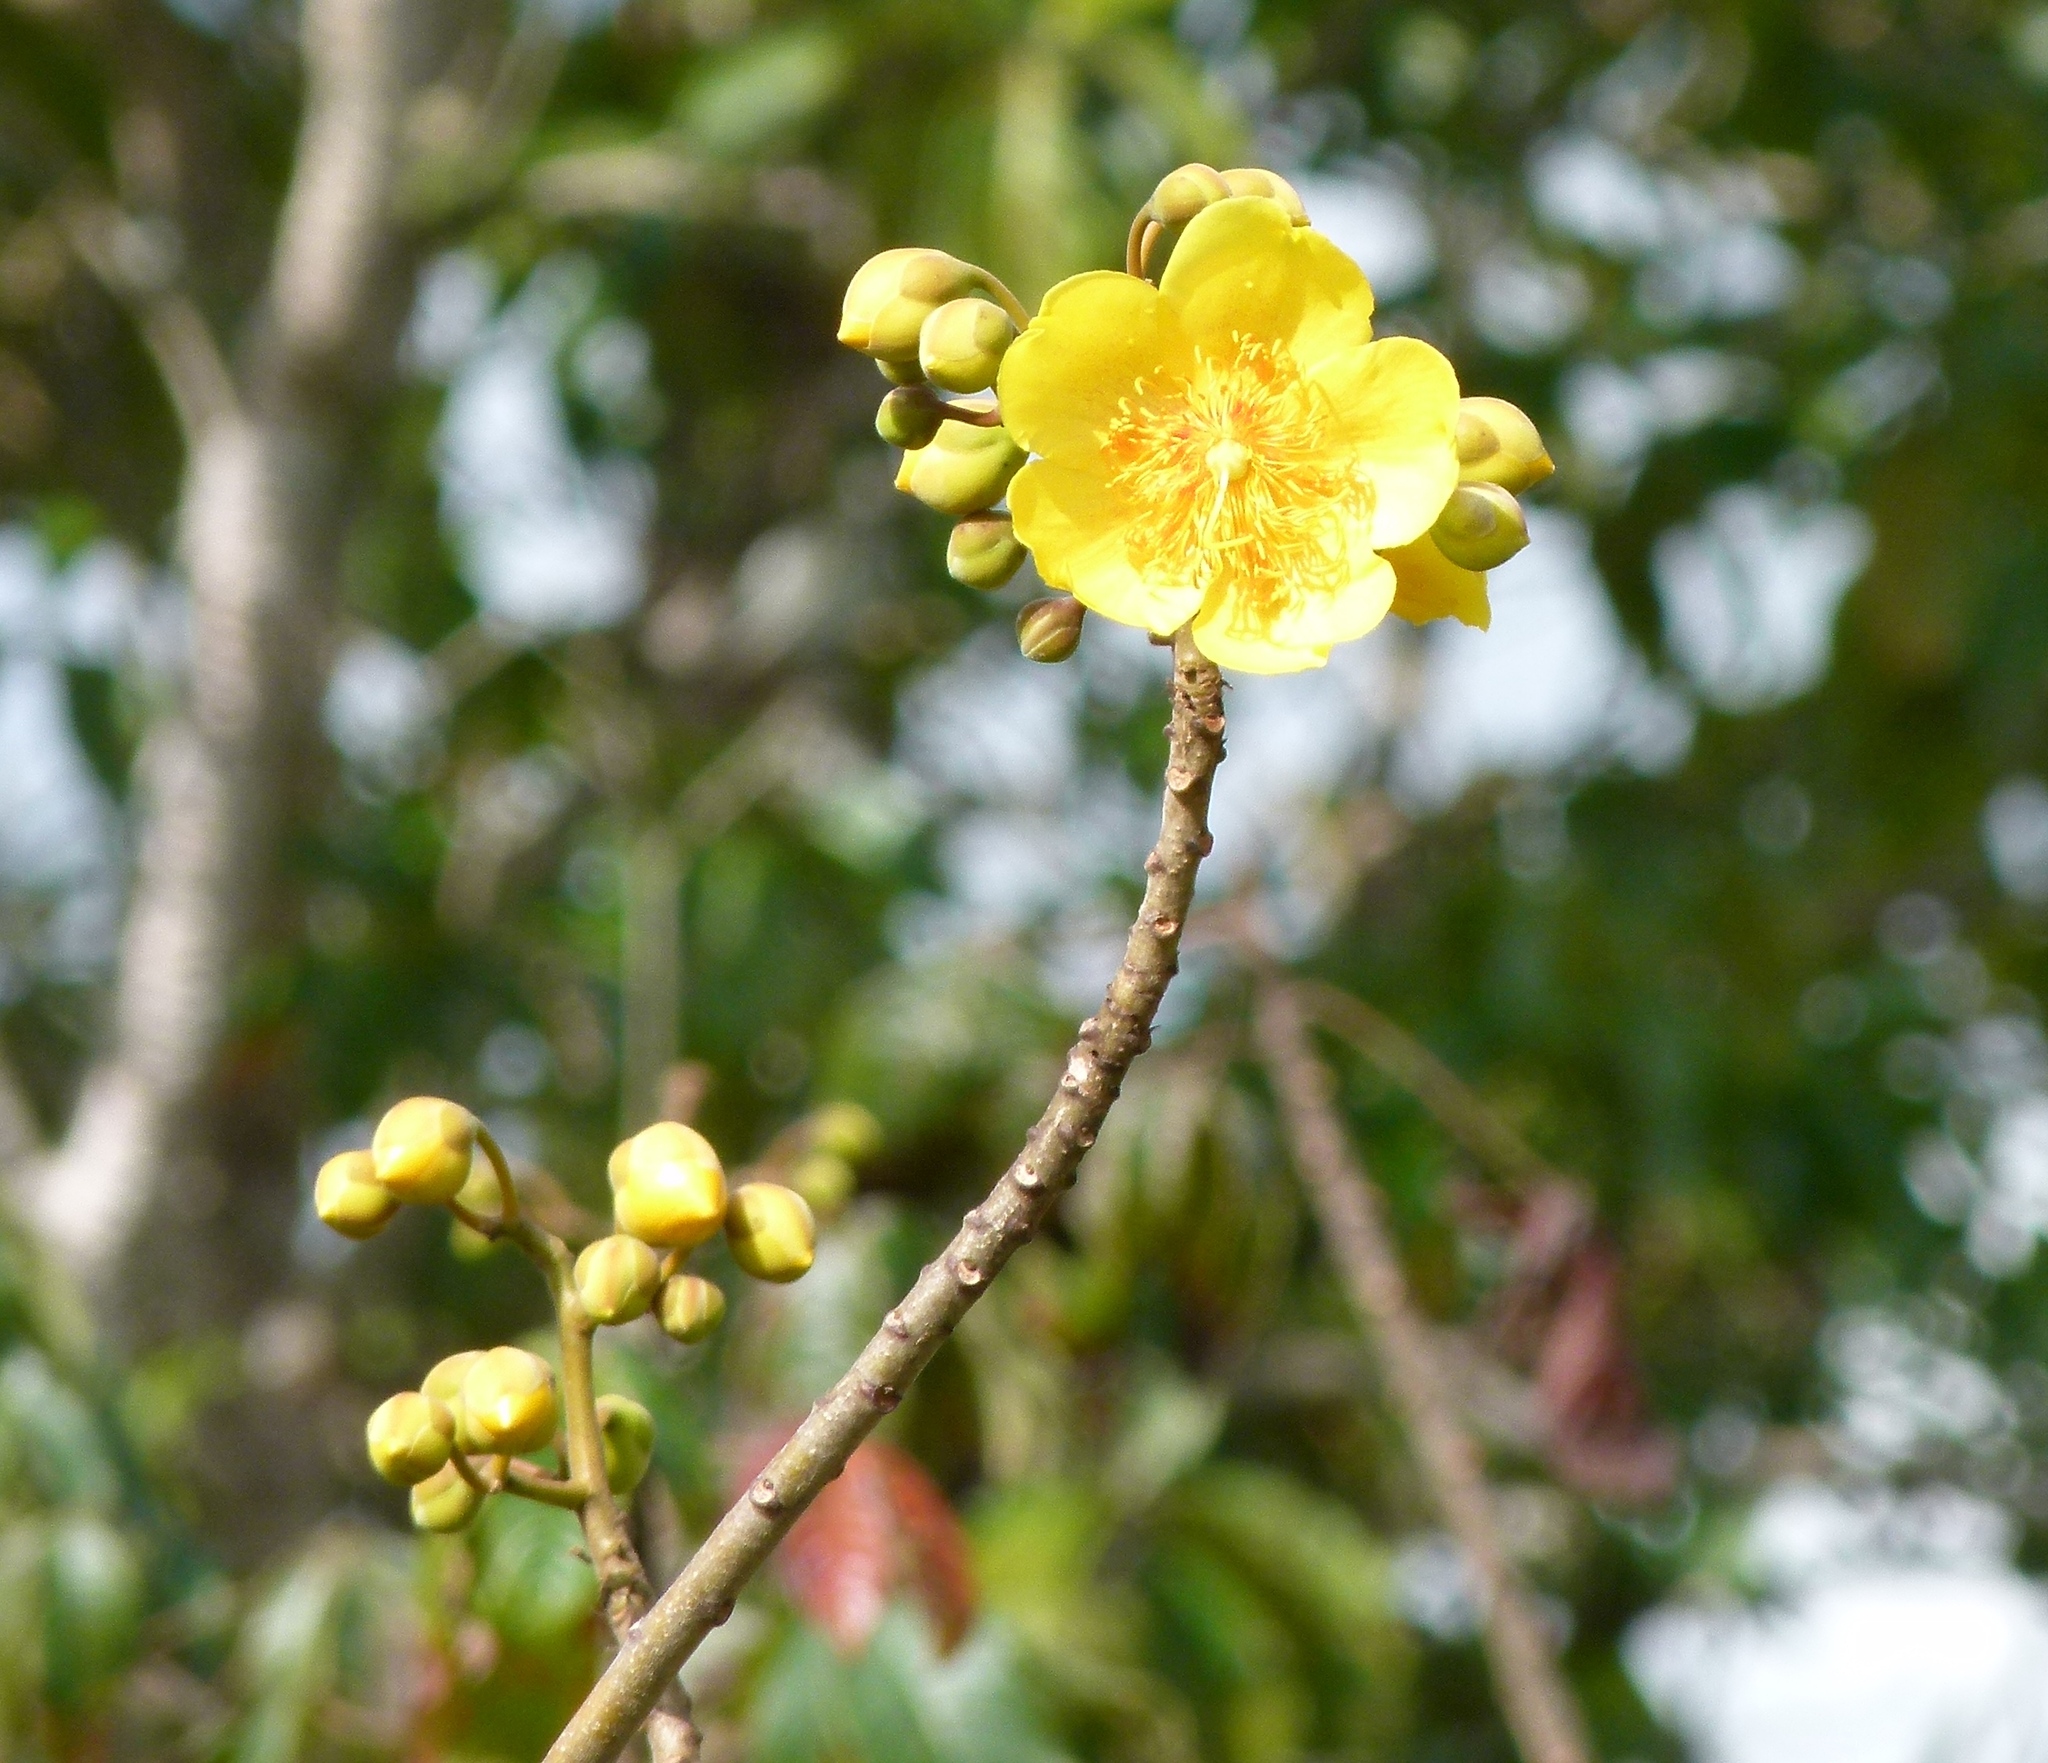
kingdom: Plantae
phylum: Tracheophyta
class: Magnoliopsida
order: Malvales
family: Cochlospermaceae
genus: Cochlospermum
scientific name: Cochlospermum vitifolium
